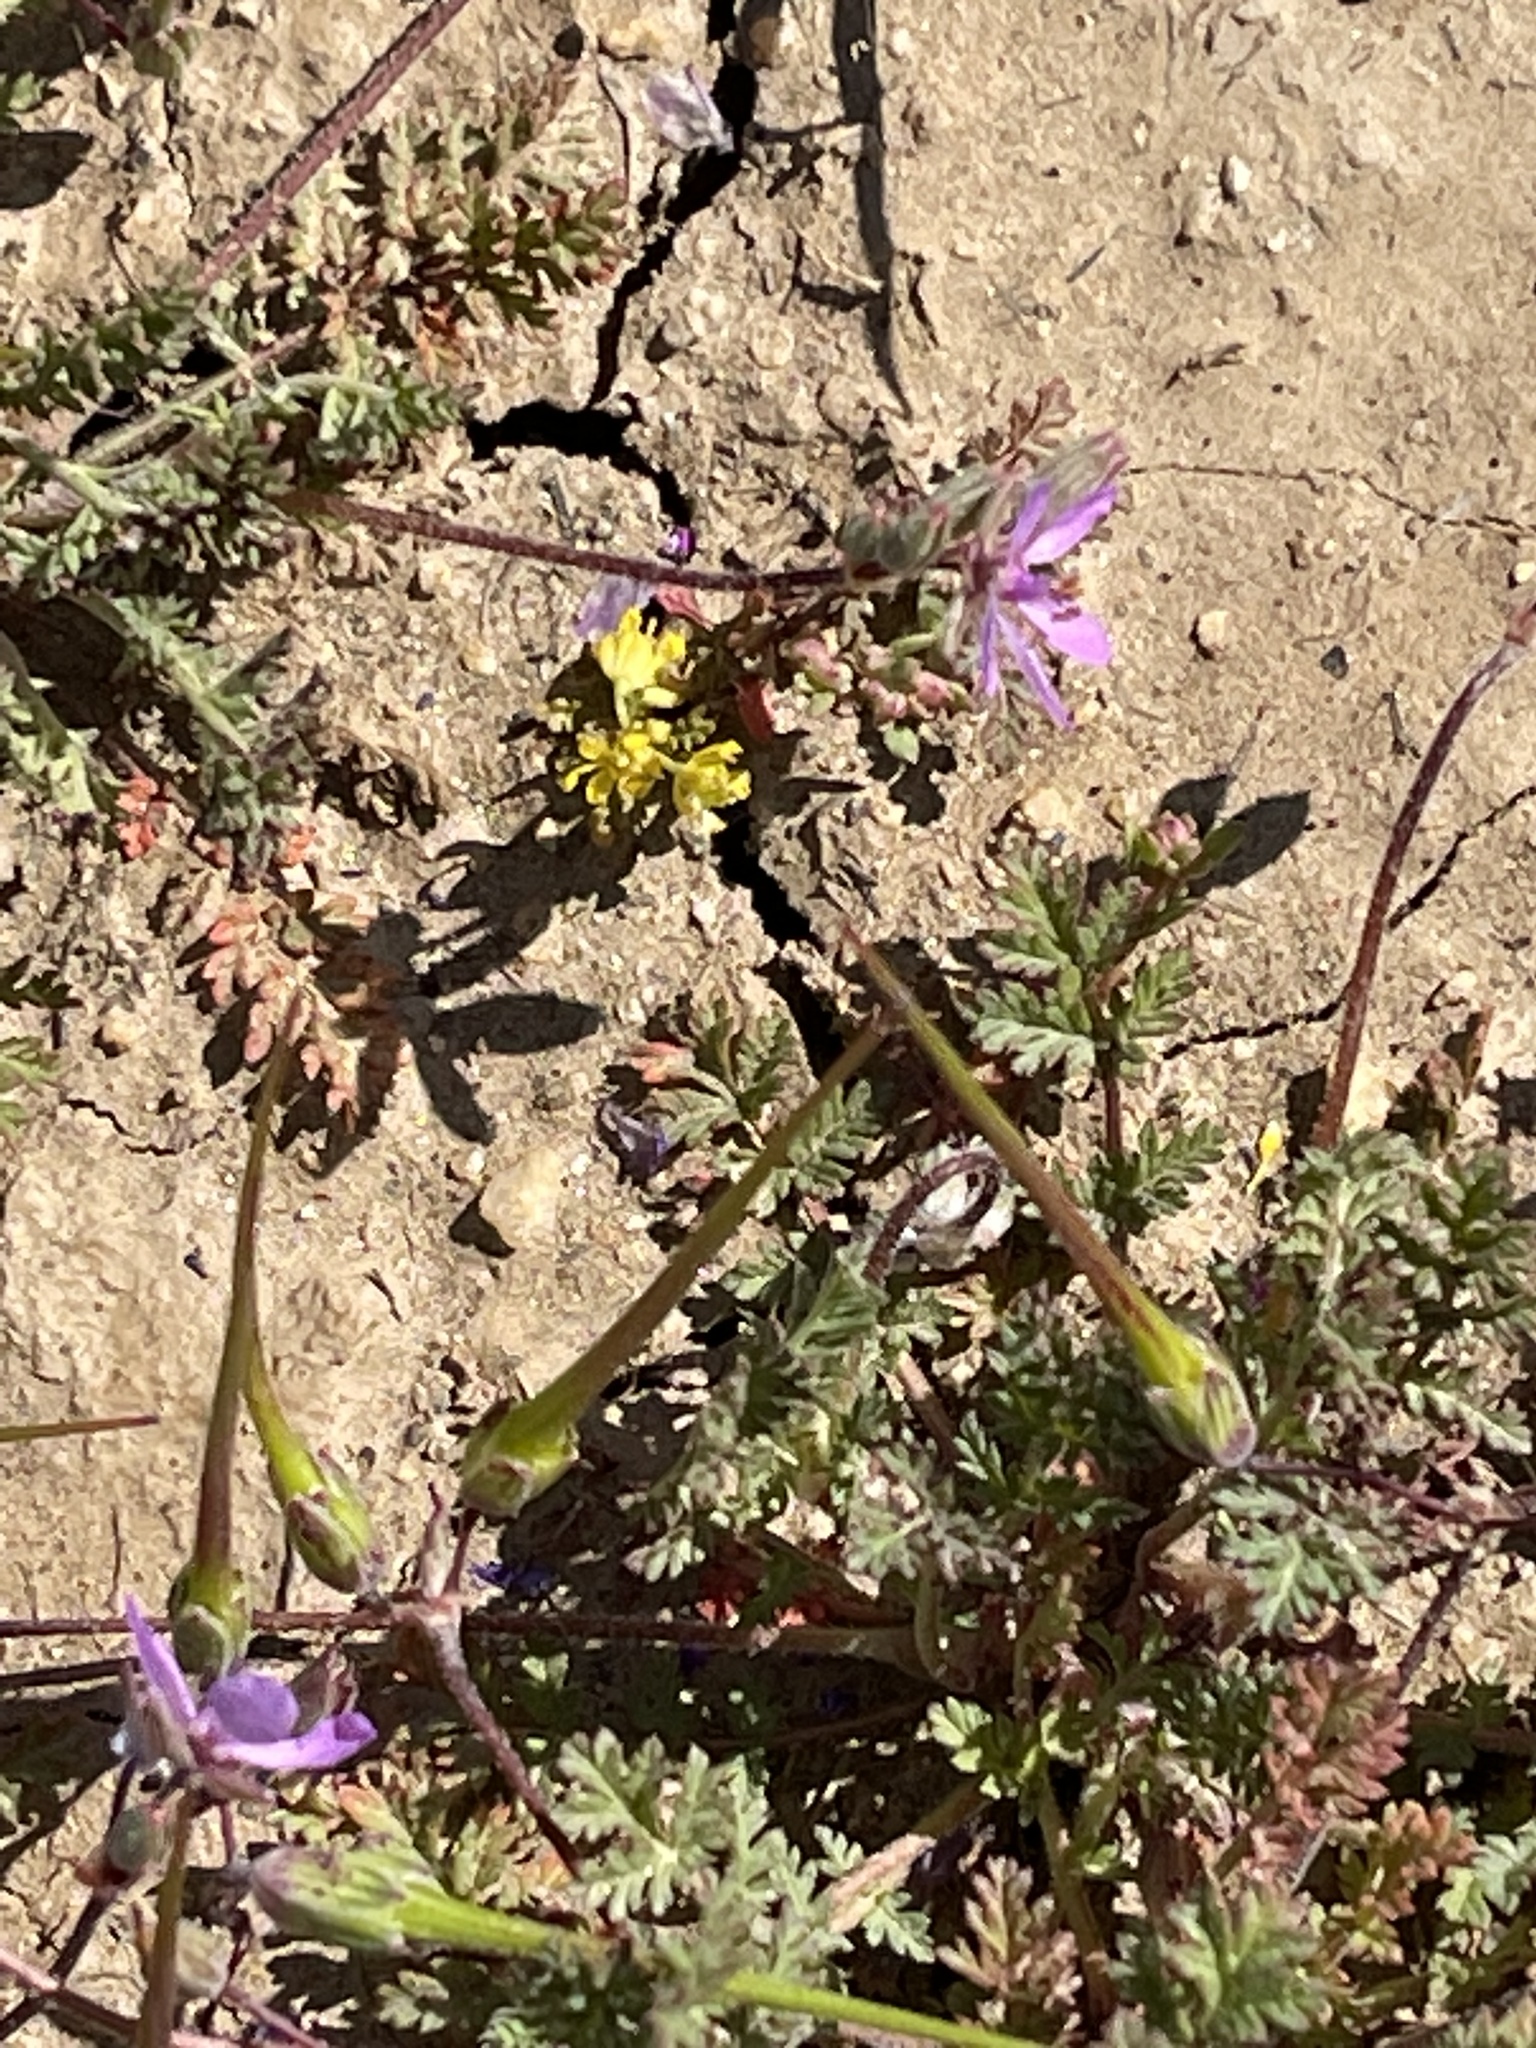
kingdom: Plantae
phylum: Tracheophyta
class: Magnoliopsida
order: Geraniales
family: Geraniaceae
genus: Erodium
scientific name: Erodium cicutarium
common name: Common stork's-bill
